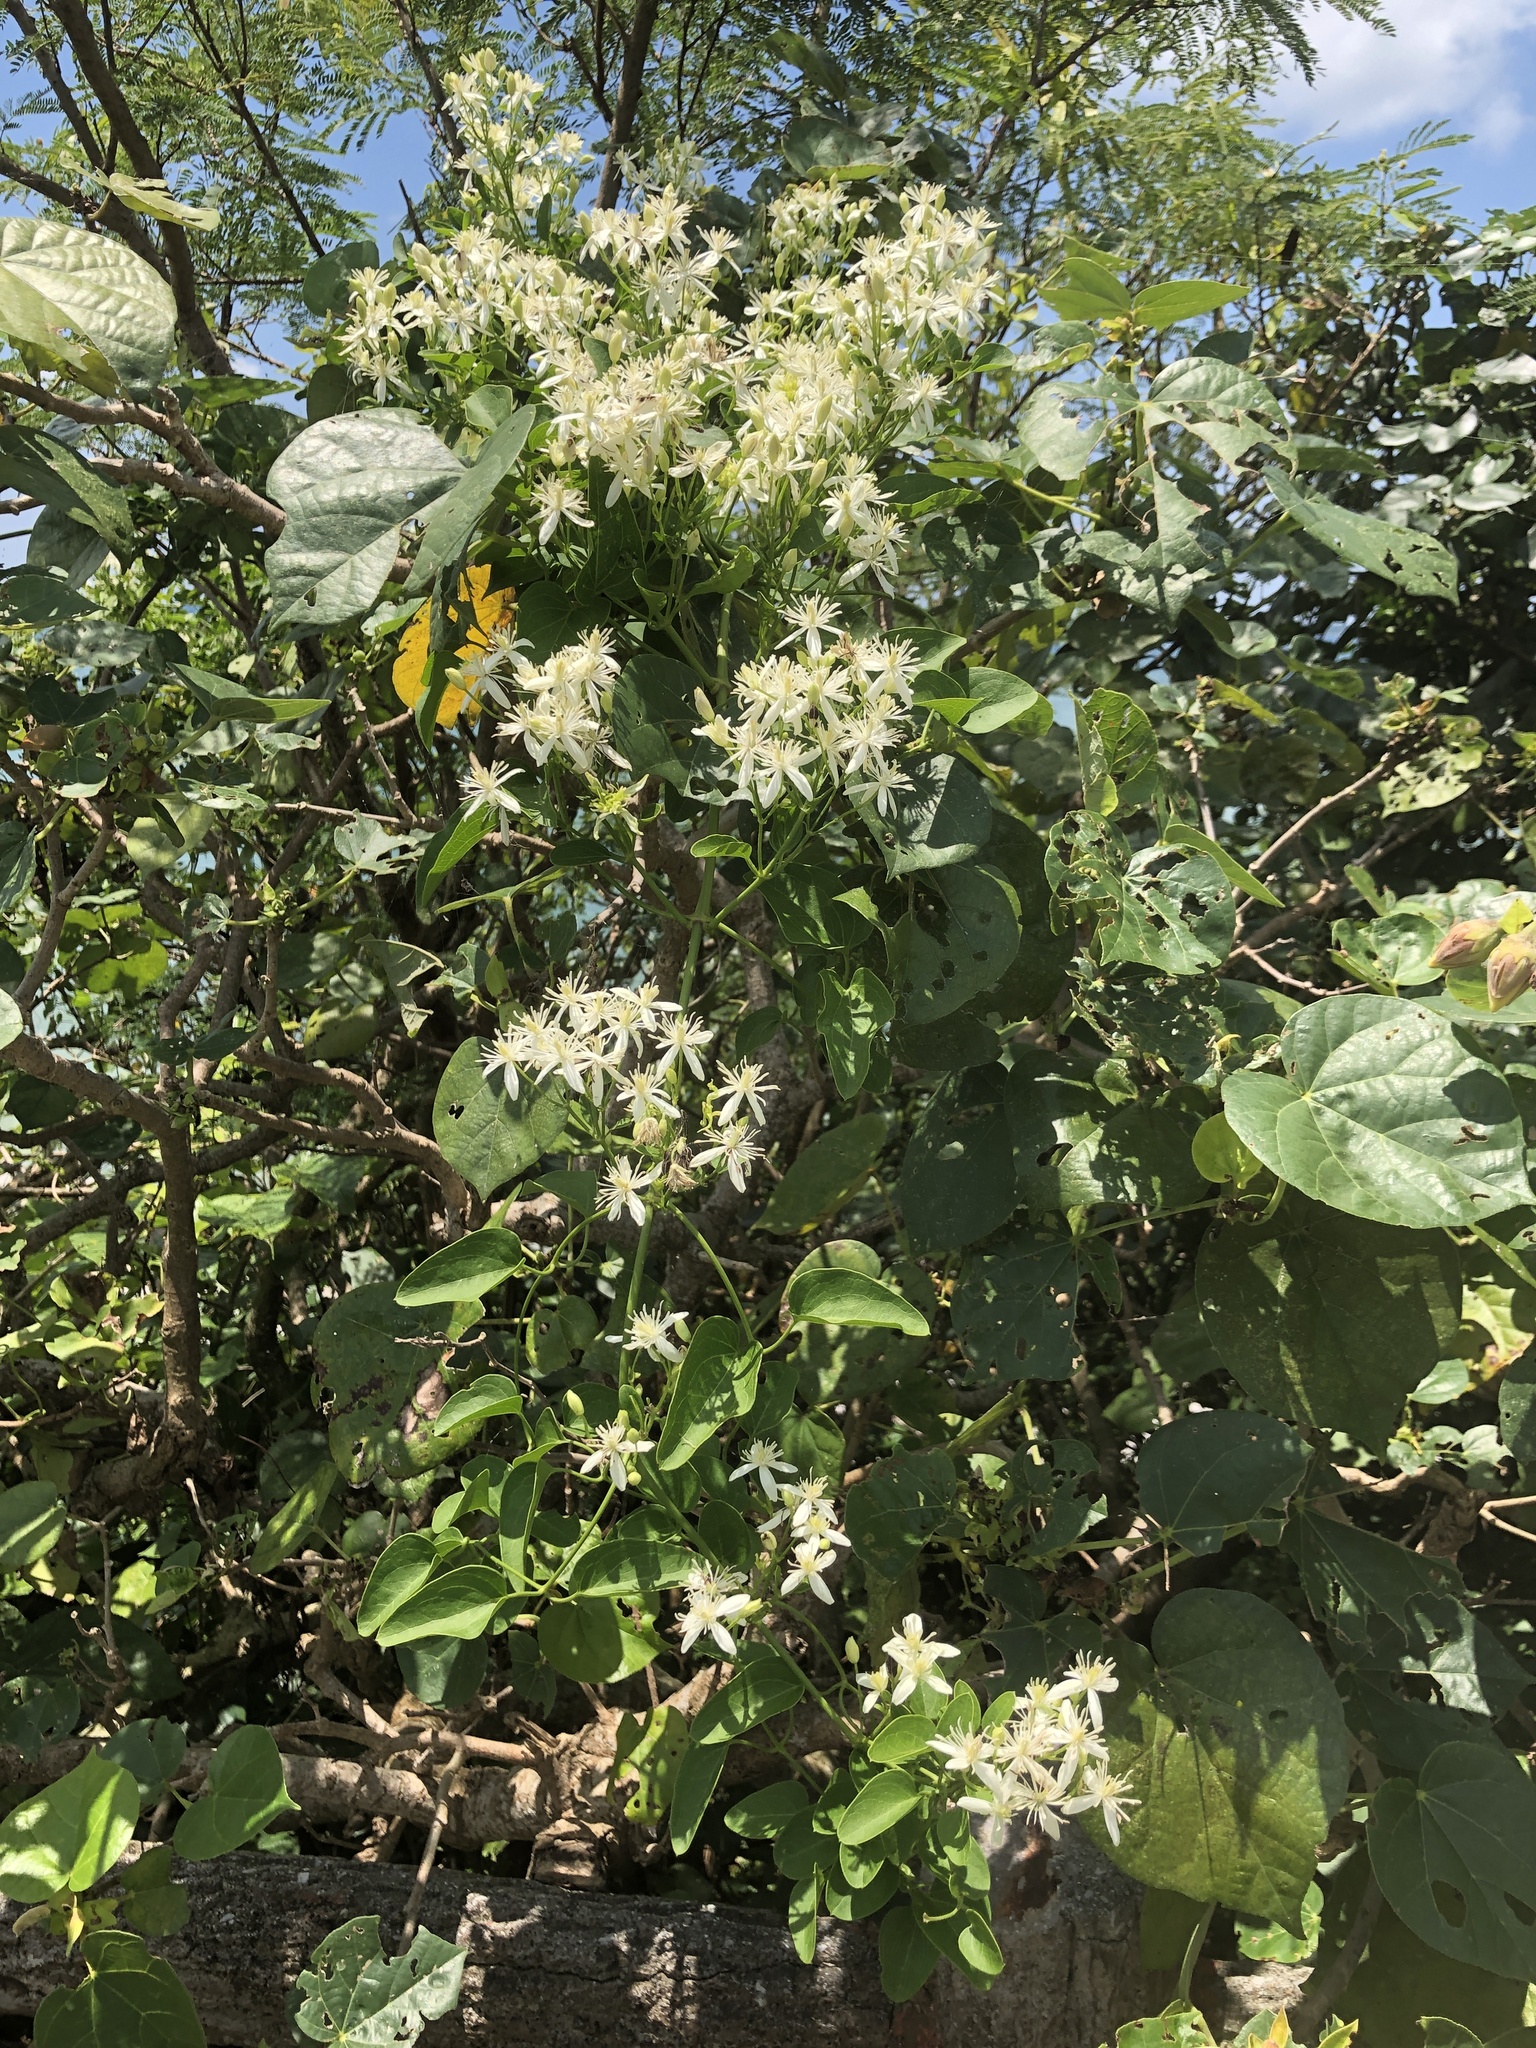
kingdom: Plantae
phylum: Tracheophyta
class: Magnoliopsida
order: Ranunculales
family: Ranunculaceae
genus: Clematis
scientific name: Clematis meyeniana
